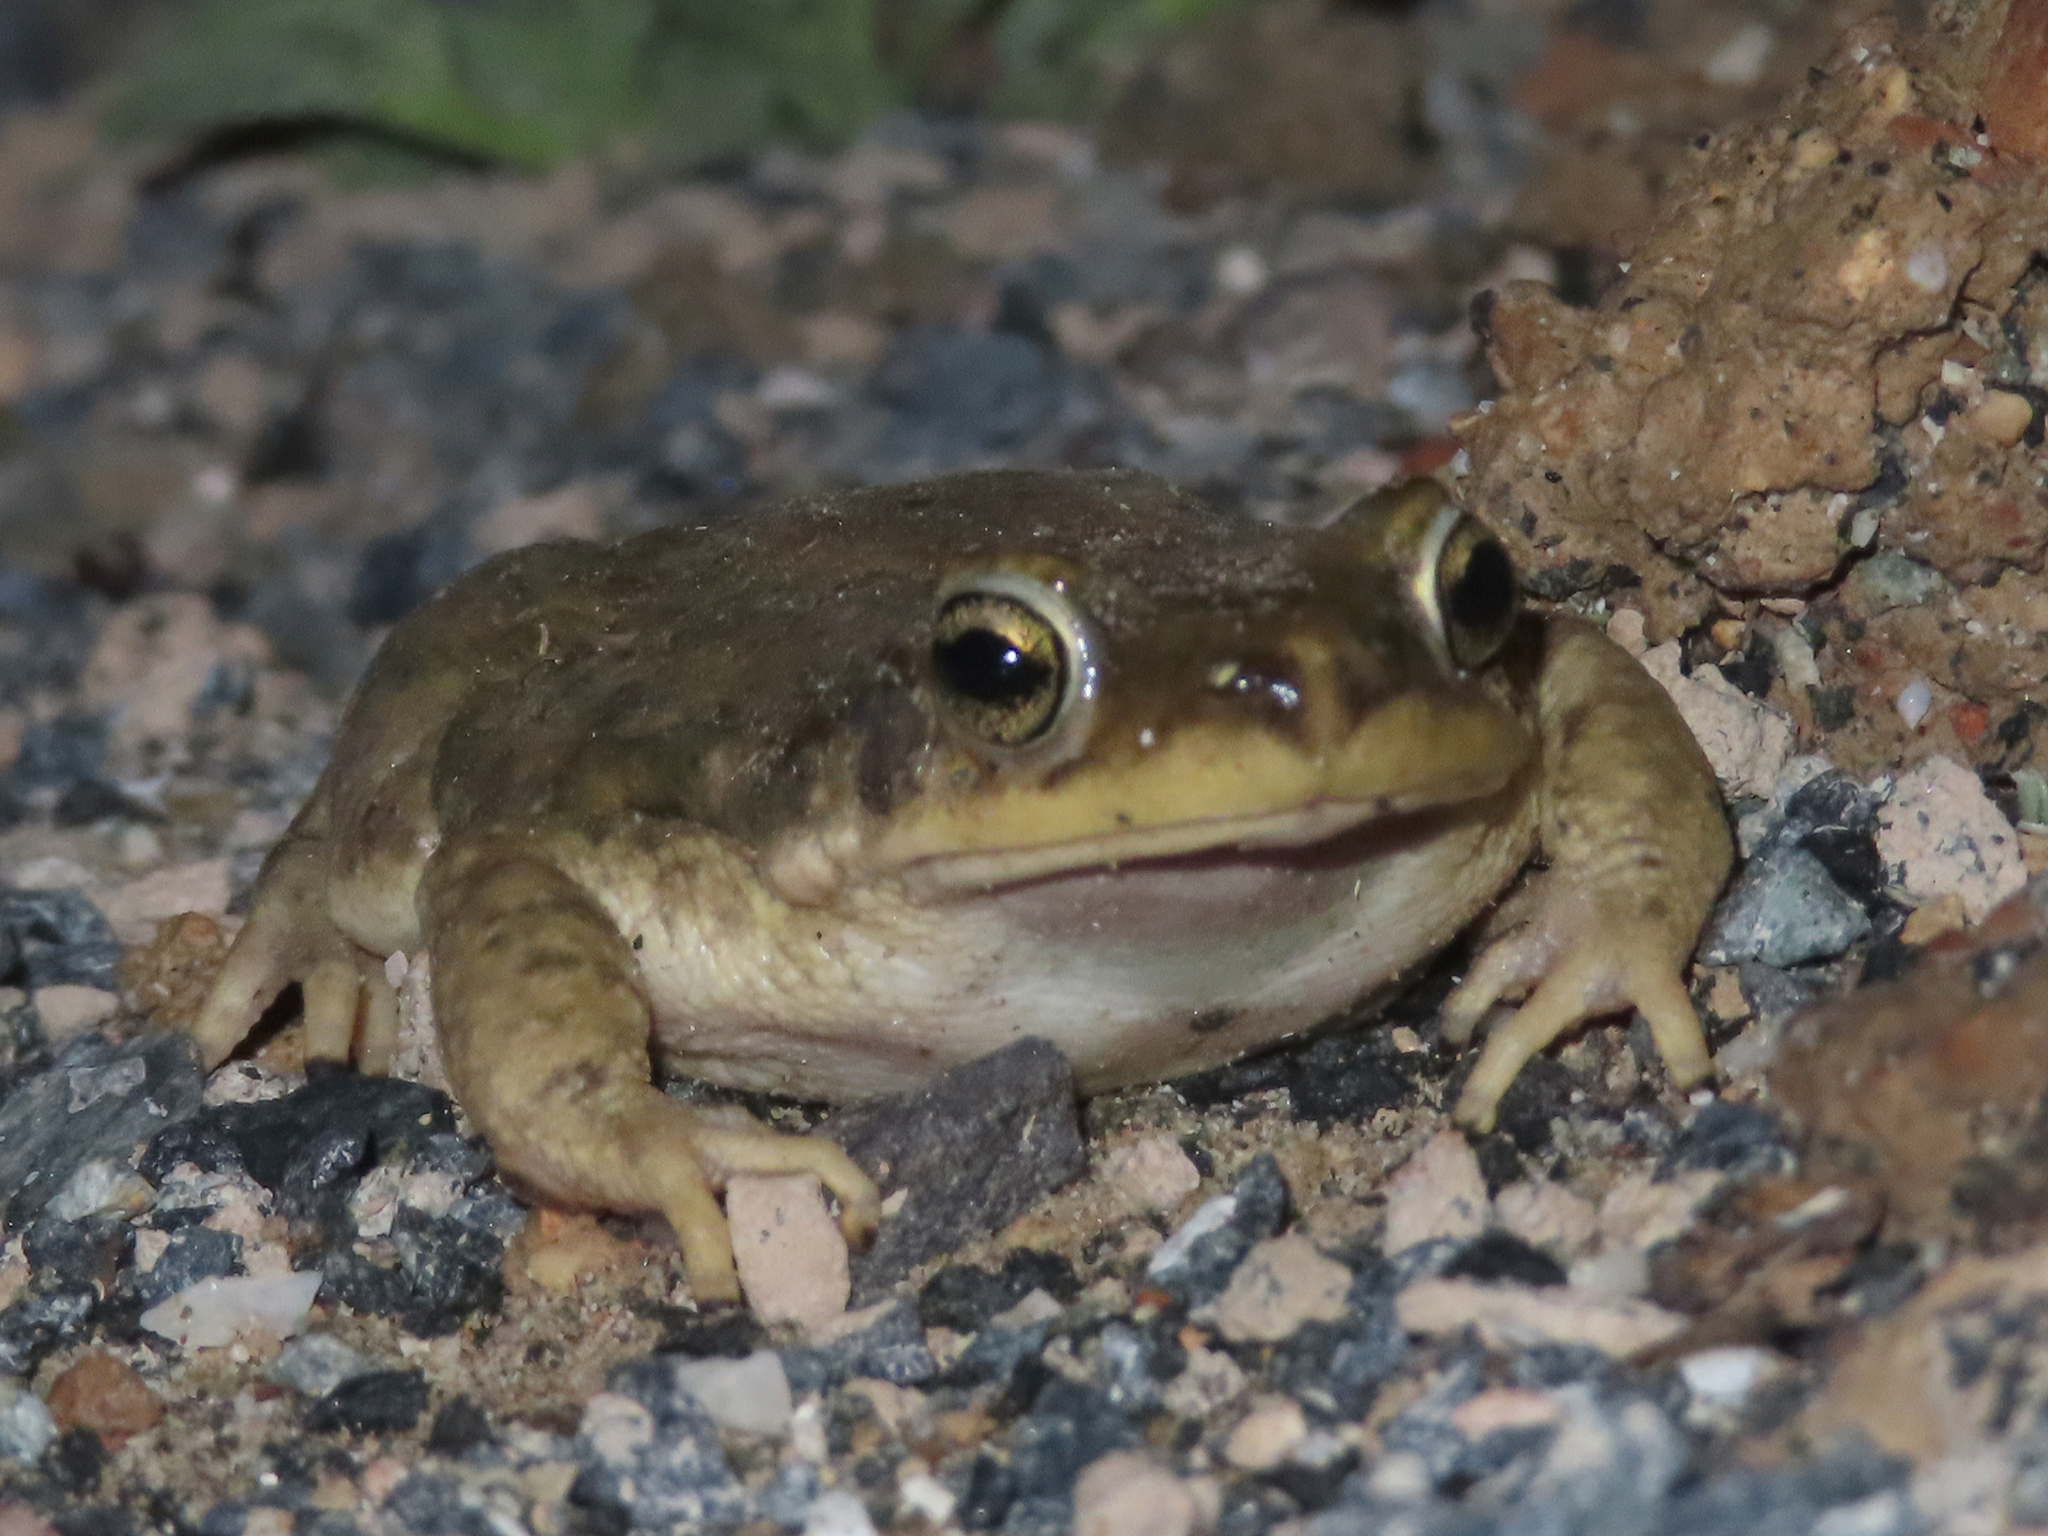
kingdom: Animalia
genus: Firouzophrynus
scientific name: Firouzophrynus
